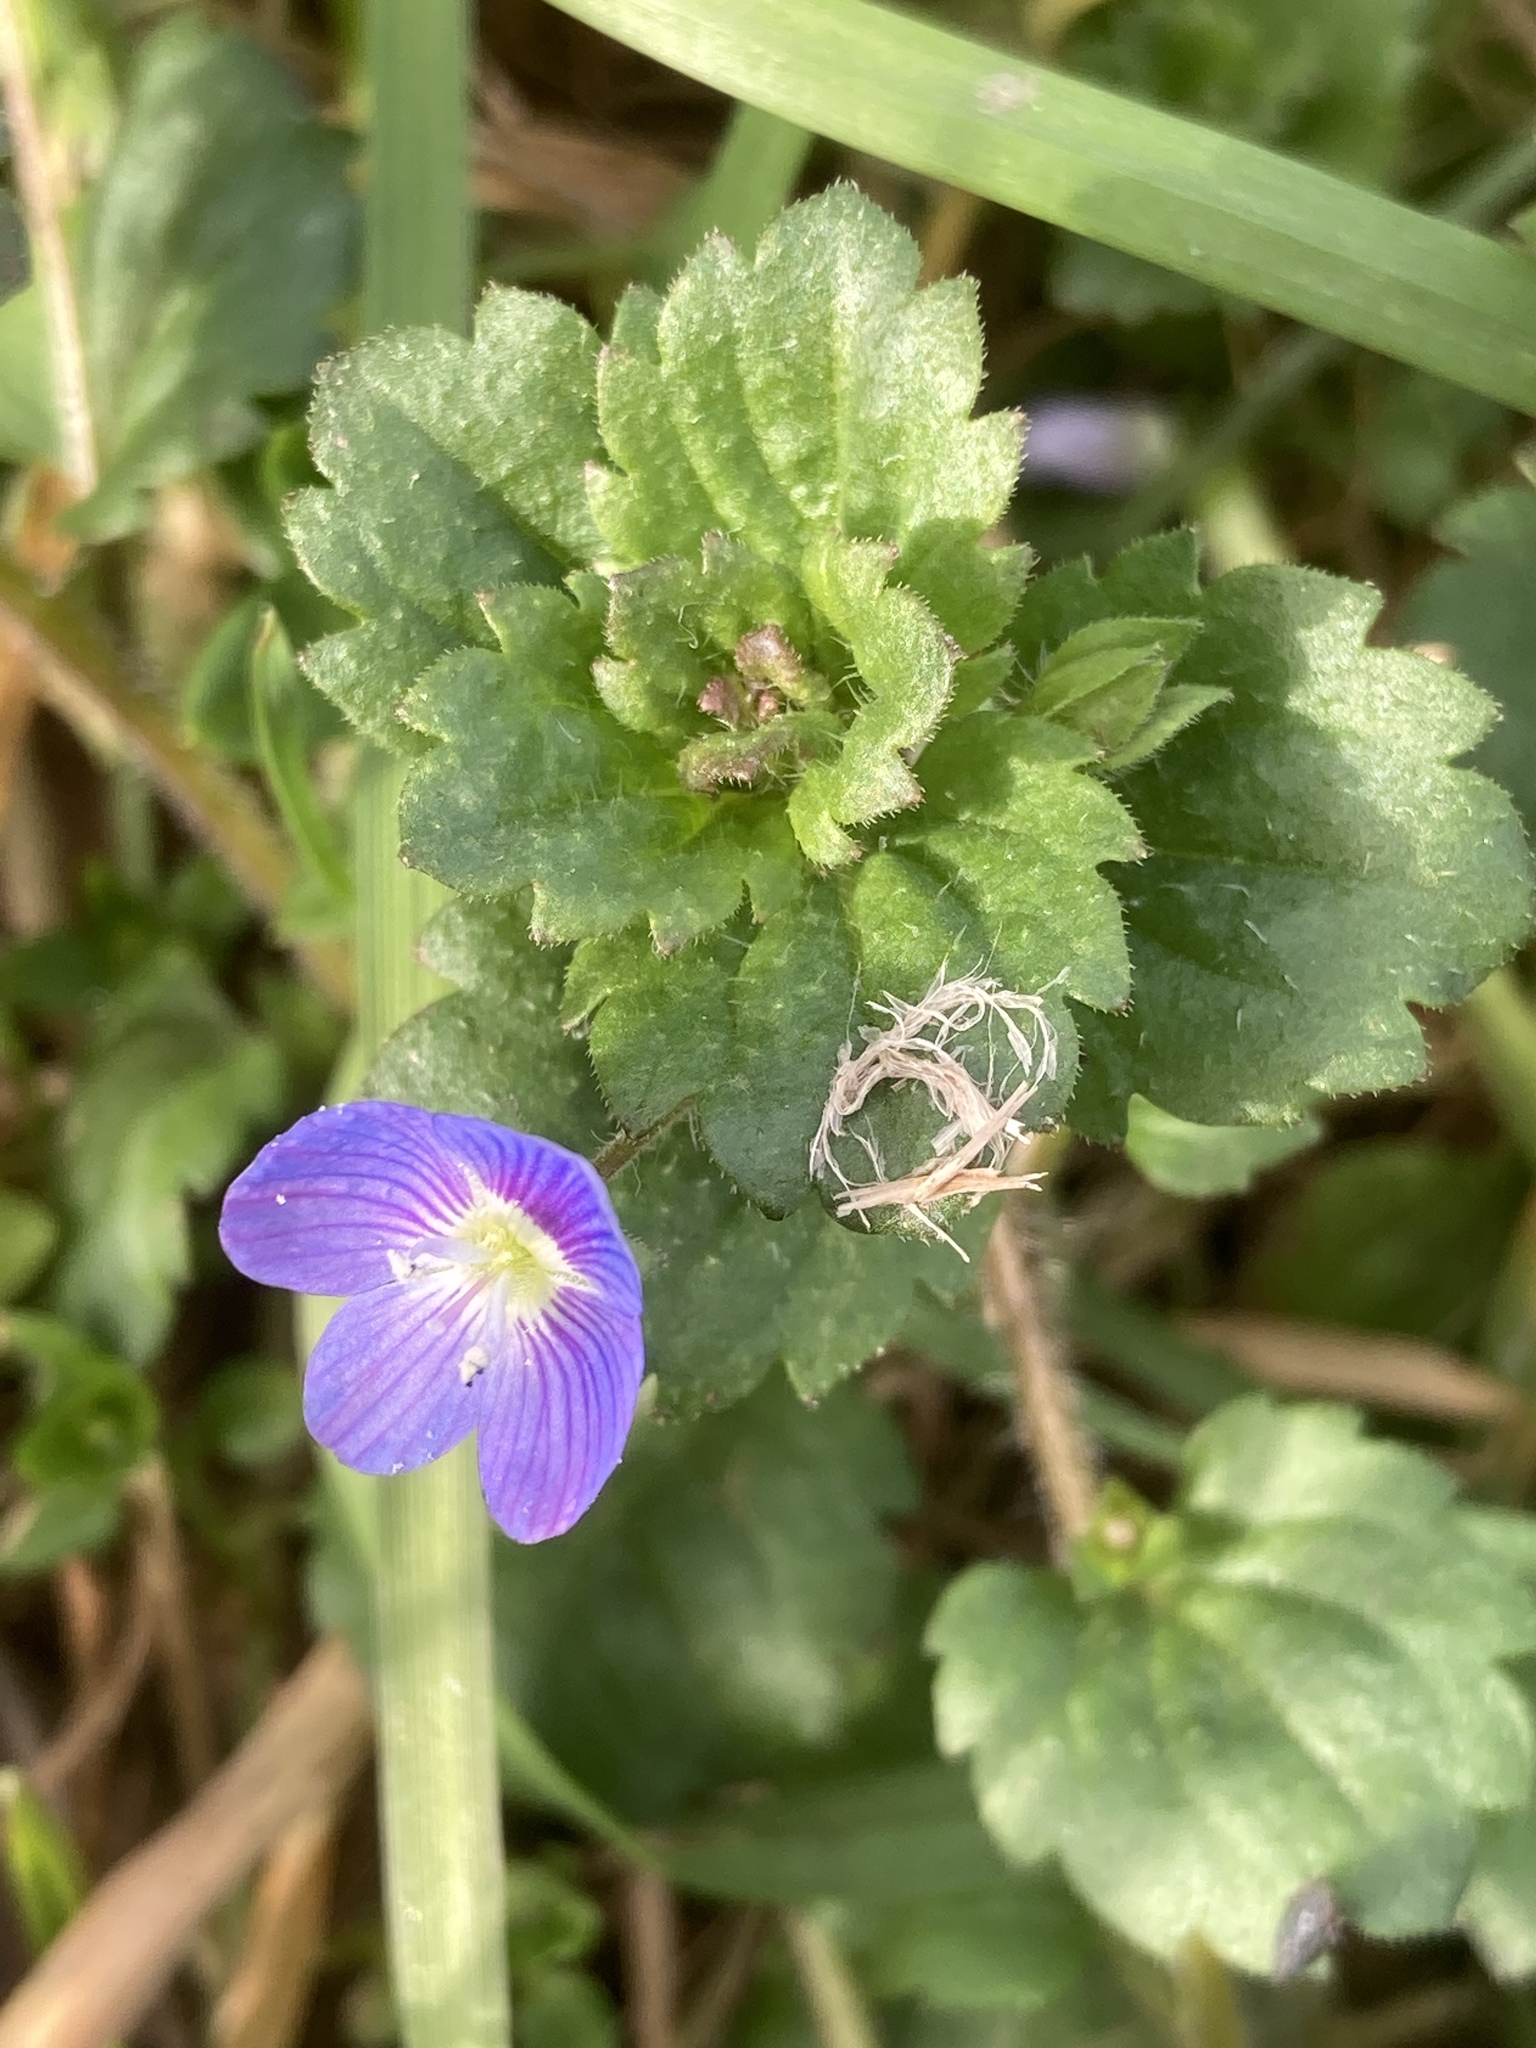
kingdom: Plantae
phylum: Tracheophyta
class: Magnoliopsida
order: Lamiales
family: Plantaginaceae
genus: Veronica
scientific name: Veronica persica
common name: Common field-speedwell
